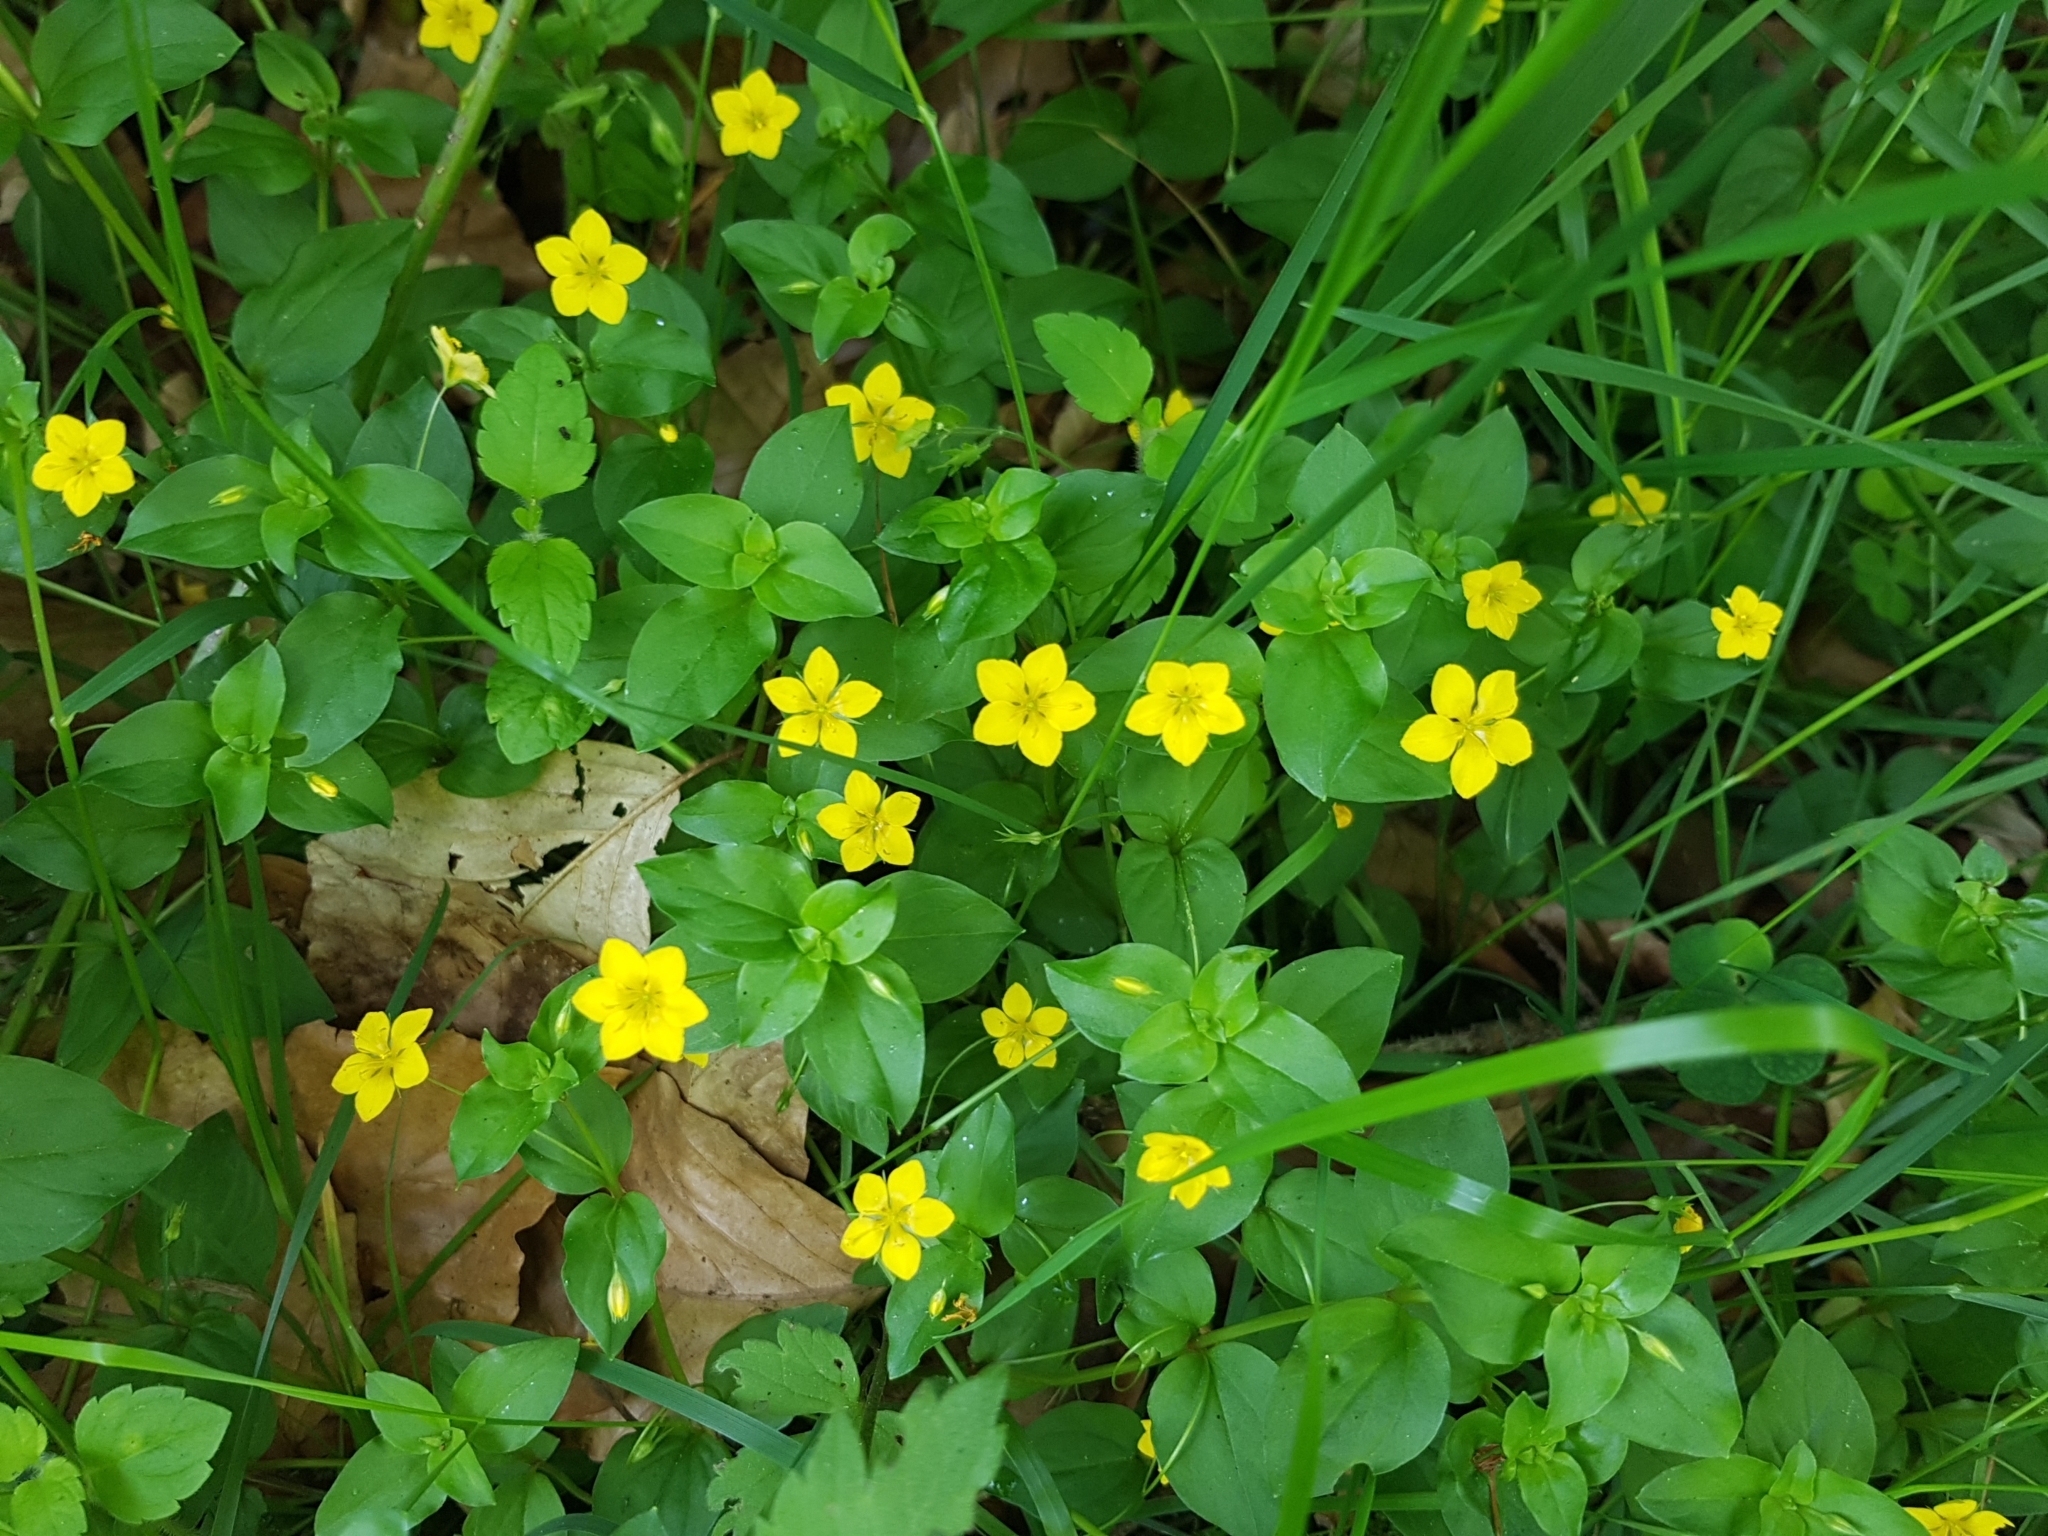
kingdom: Plantae
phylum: Tracheophyta
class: Magnoliopsida
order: Ericales
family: Primulaceae
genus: Lysimachia
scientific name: Lysimachia nemorum
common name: Yellow pimpernel
